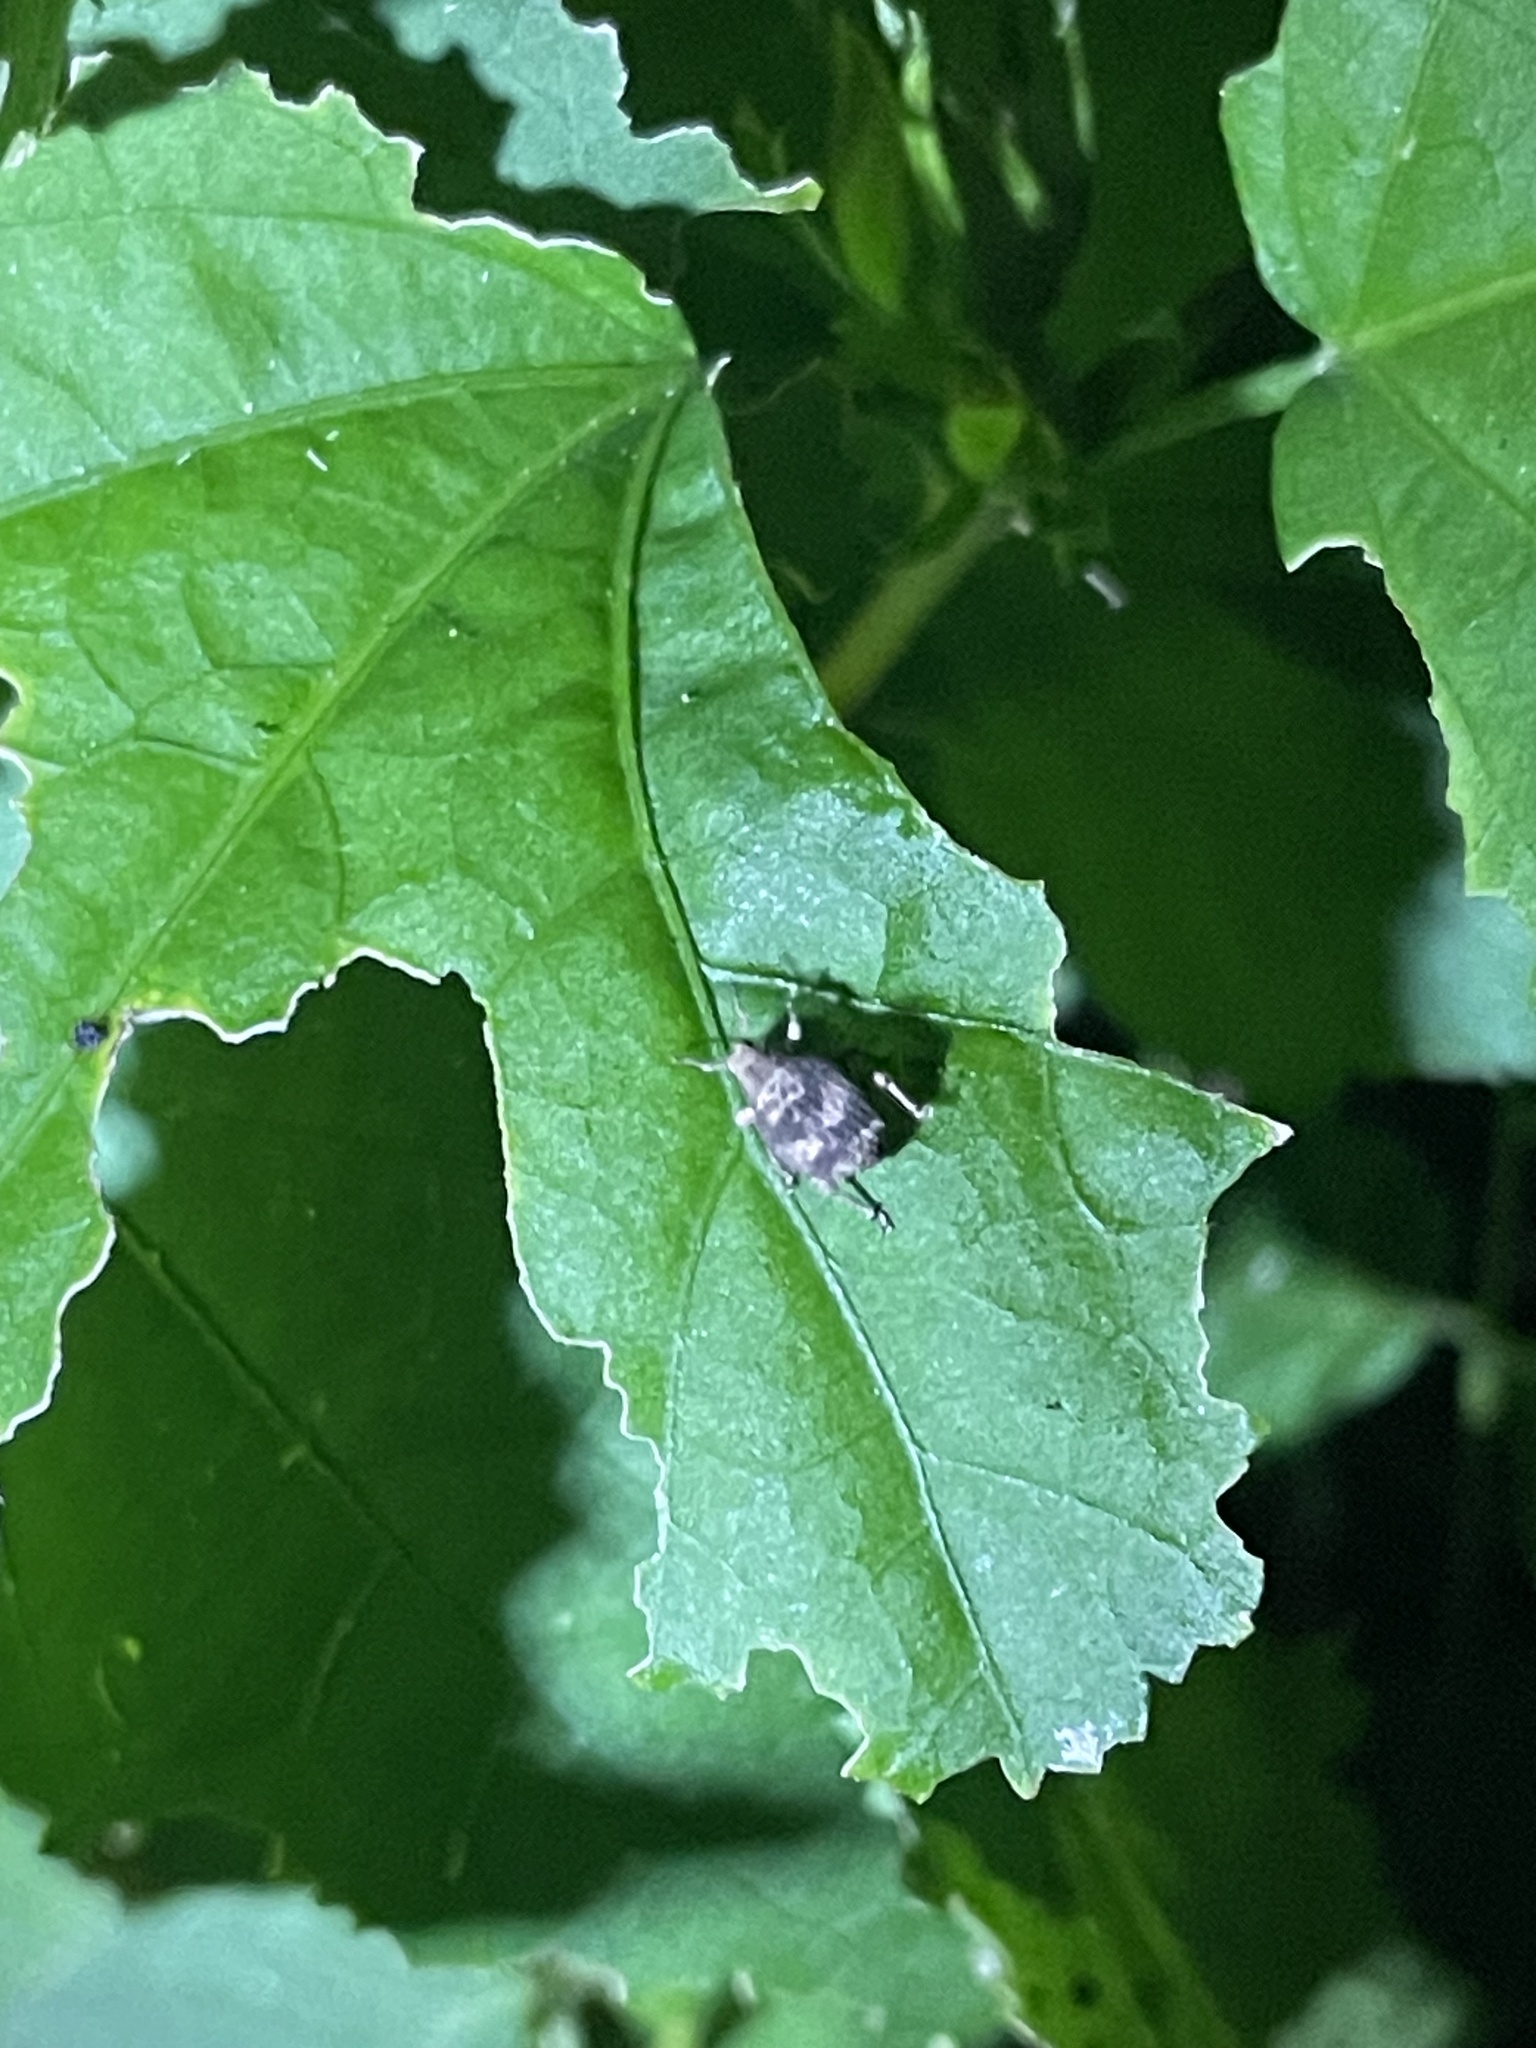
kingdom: Animalia
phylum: Arthropoda
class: Insecta
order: Coleoptera
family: Curculionidae
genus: Pseudocneorhinus
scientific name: Pseudocneorhinus bifasciatus
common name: Two-banded japanese weevil
